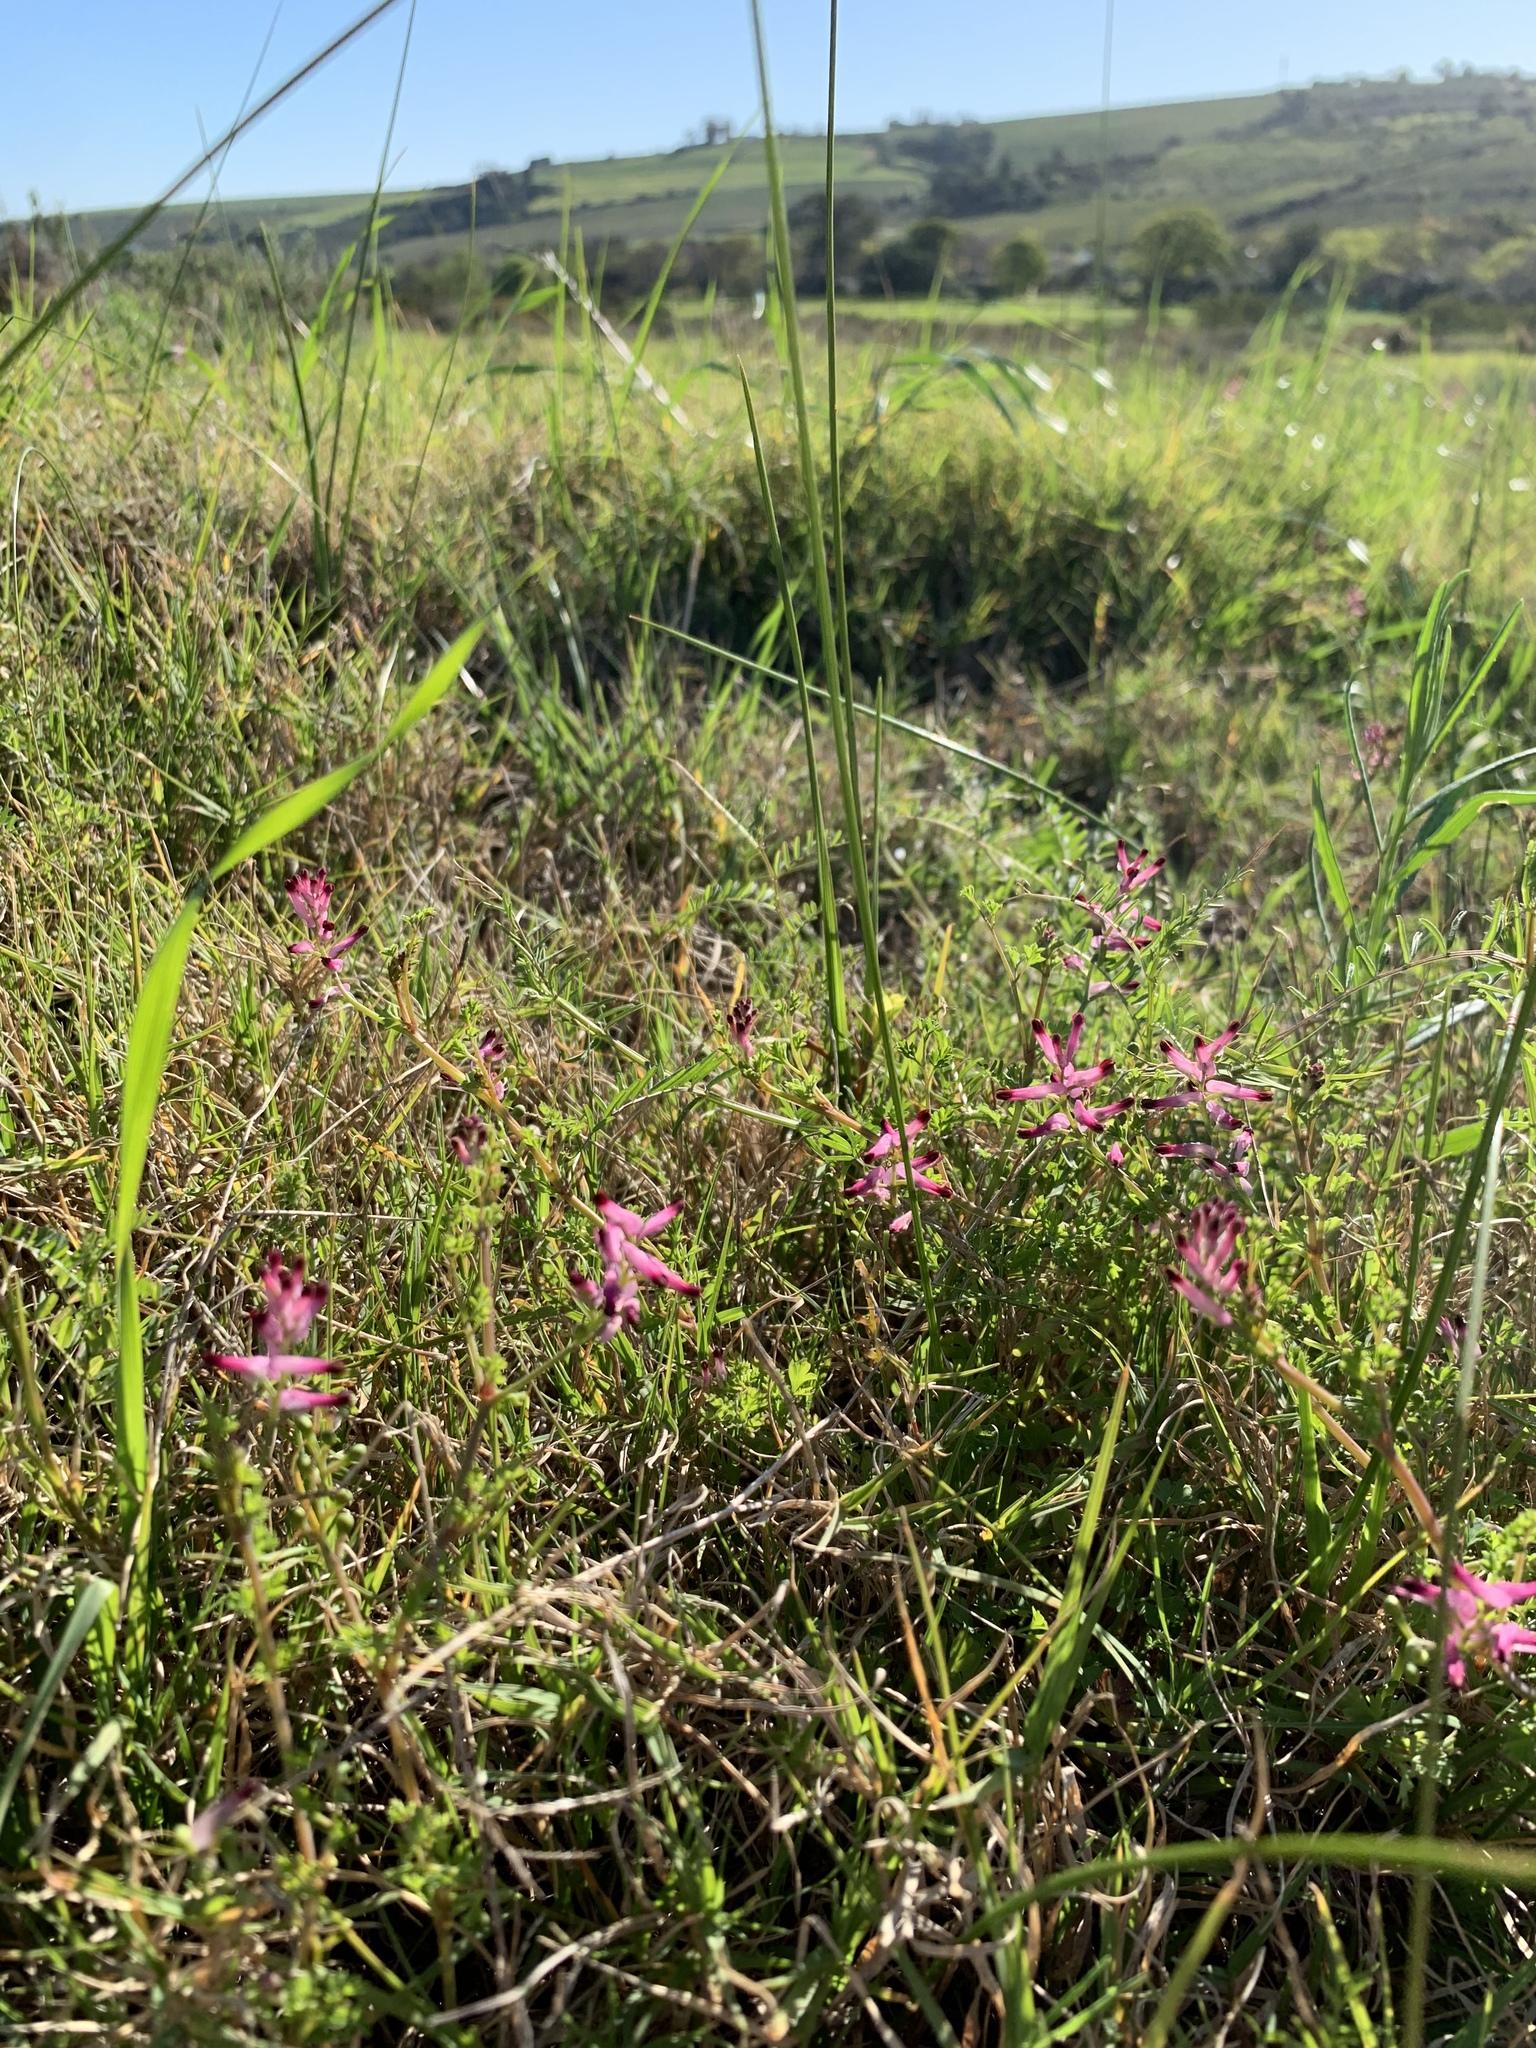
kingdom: Plantae
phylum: Tracheophyta
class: Magnoliopsida
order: Ranunculales
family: Papaveraceae
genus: Fumaria
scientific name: Fumaria muralis
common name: Common ramping-fumitory
